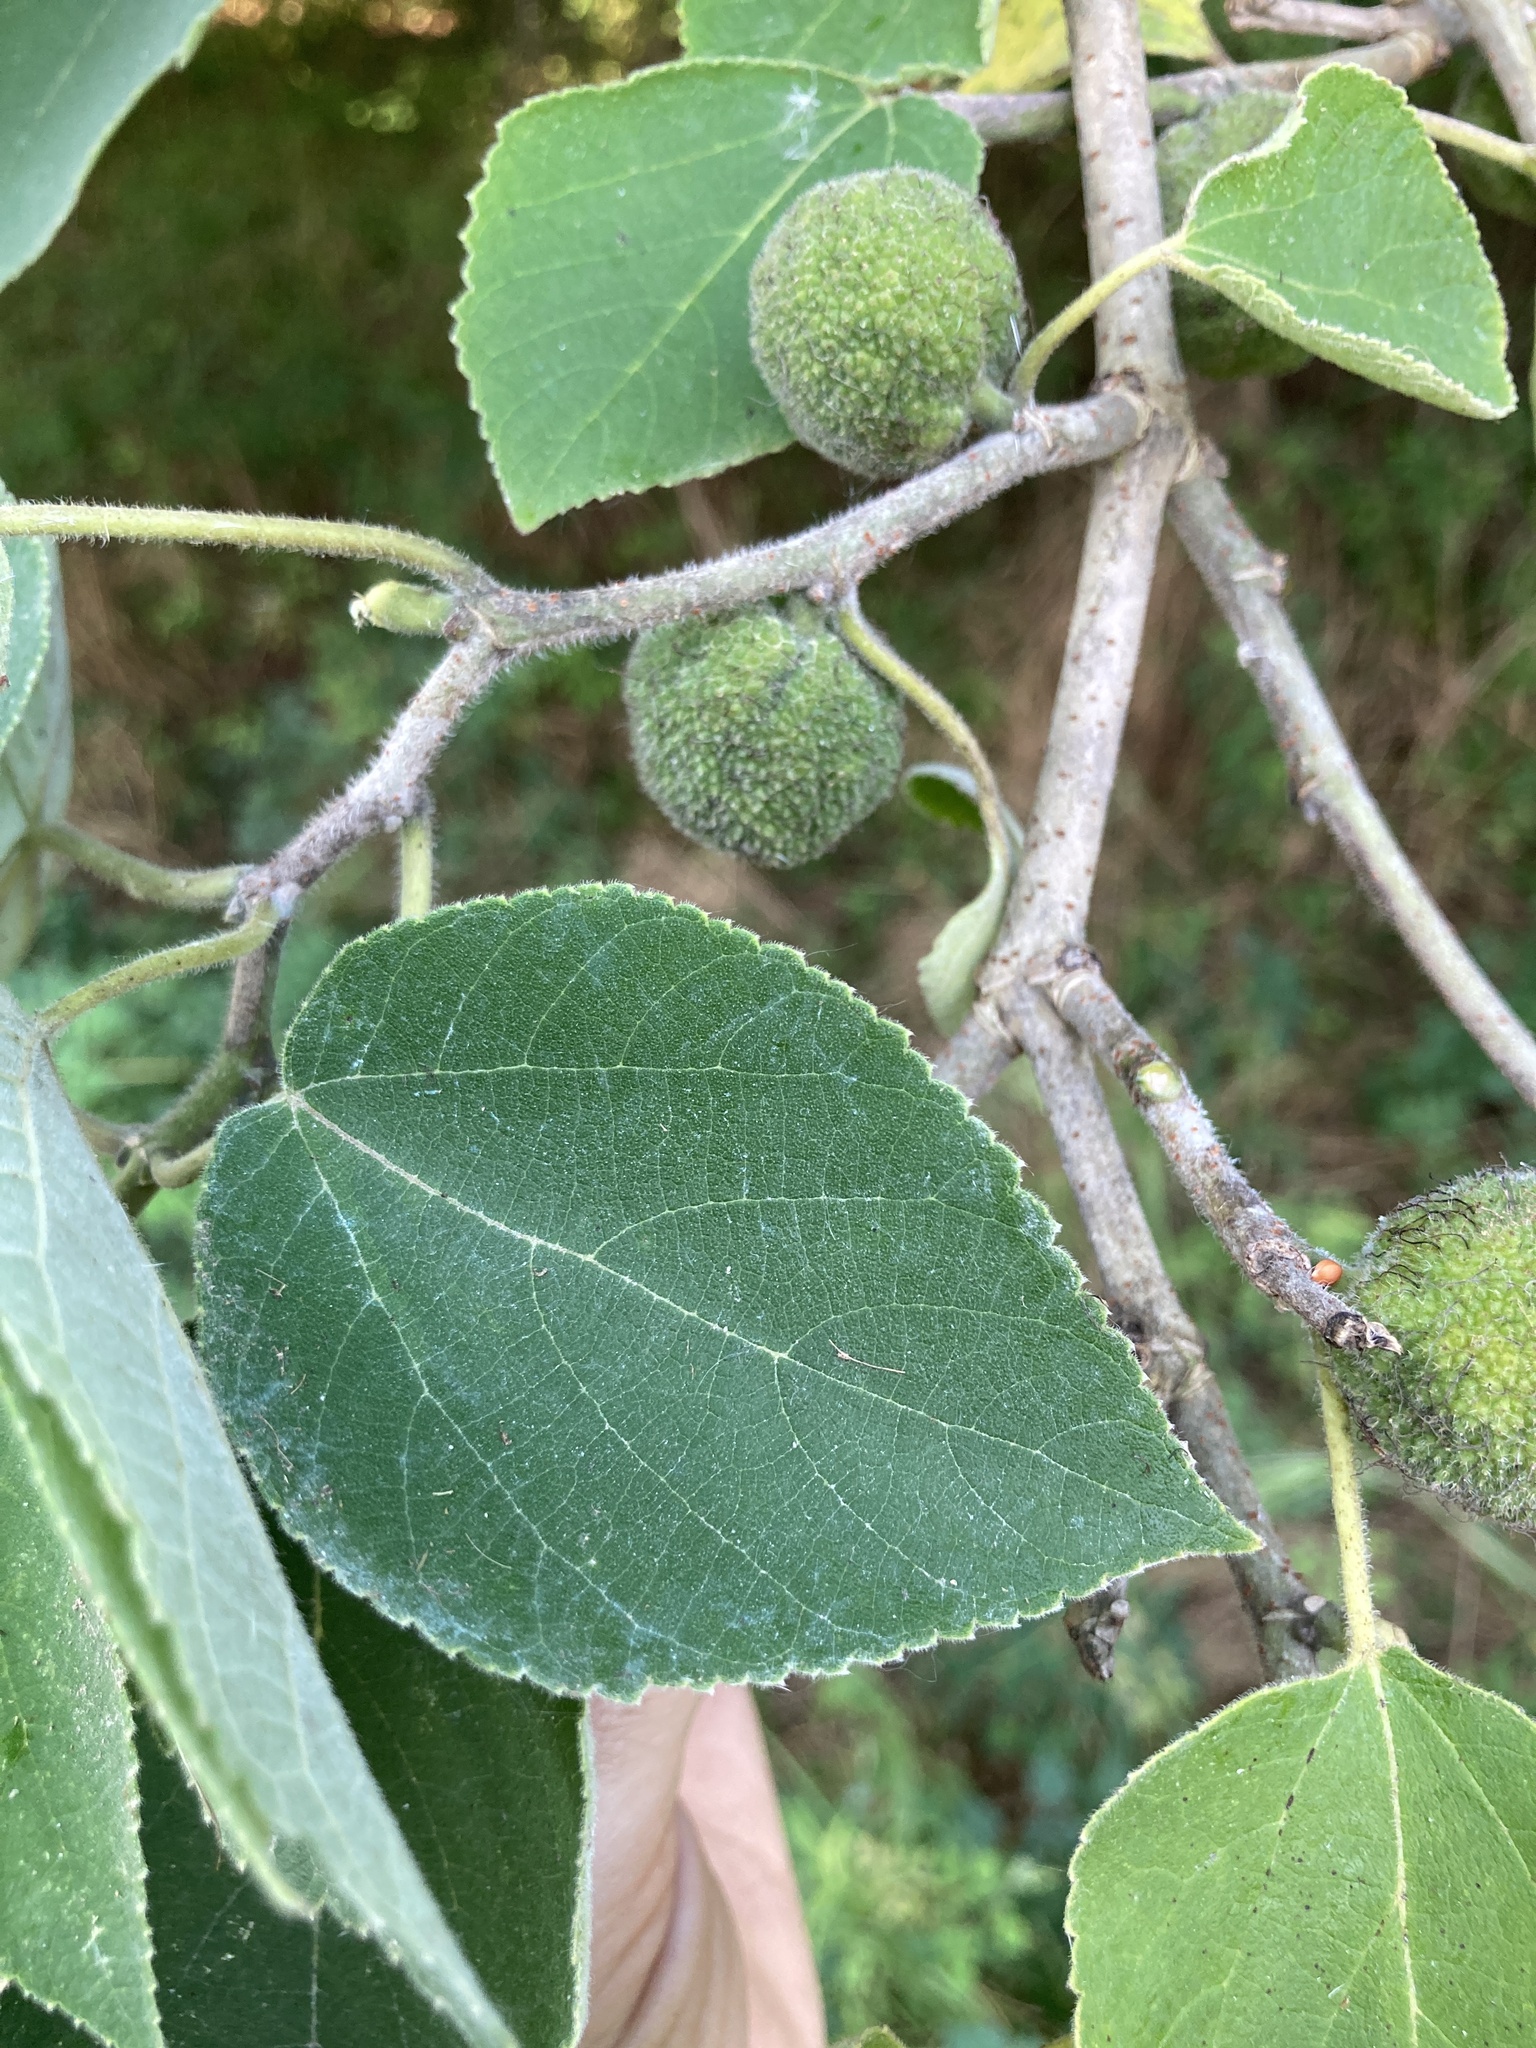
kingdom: Plantae
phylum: Tracheophyta
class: Magnoliopsida
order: Rosales
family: Moraceae
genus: Broussonetia
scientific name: Broussonetia papyrifera
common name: Paper mulberry
